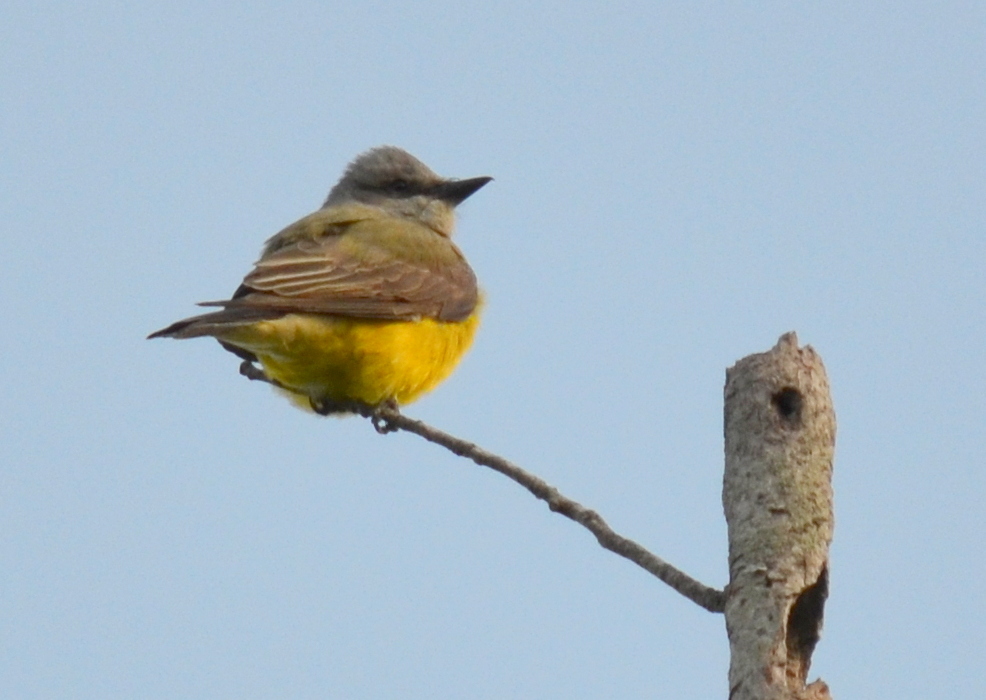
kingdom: Animalia
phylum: Chordata
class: Aves
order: Passeriformes
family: Tyrannidae
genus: Tyrannus
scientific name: Tyrannus verticalis
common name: Western kingbird
